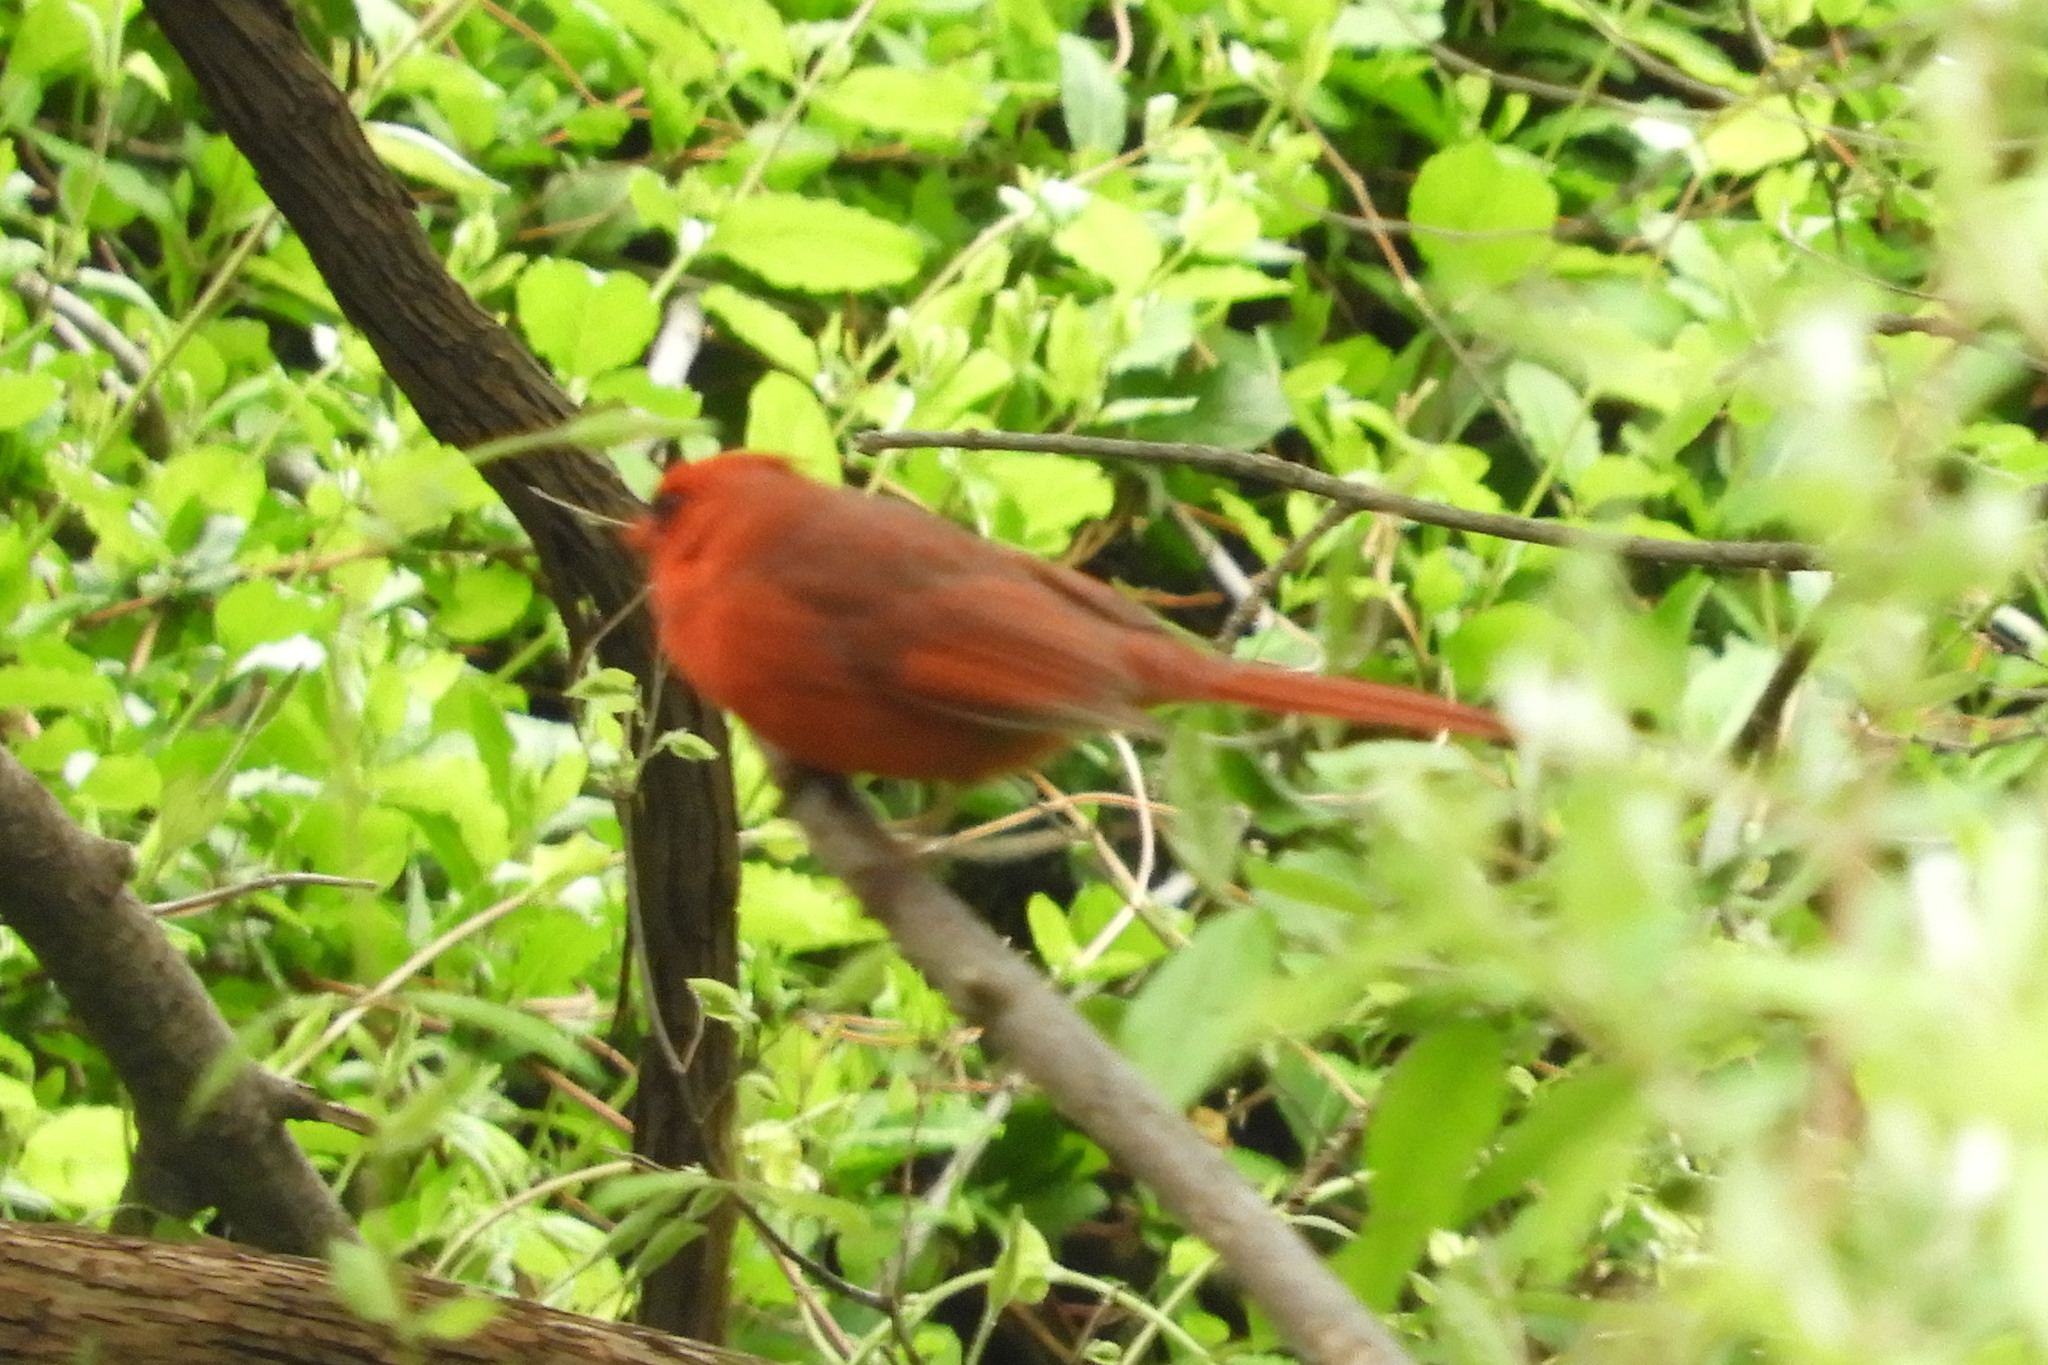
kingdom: Animalia
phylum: Chordata
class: Aves
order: Passeriformes
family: Cardinalidae
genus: Cardinalis
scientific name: Cardinalis cardinalis
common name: Northern cardinal
